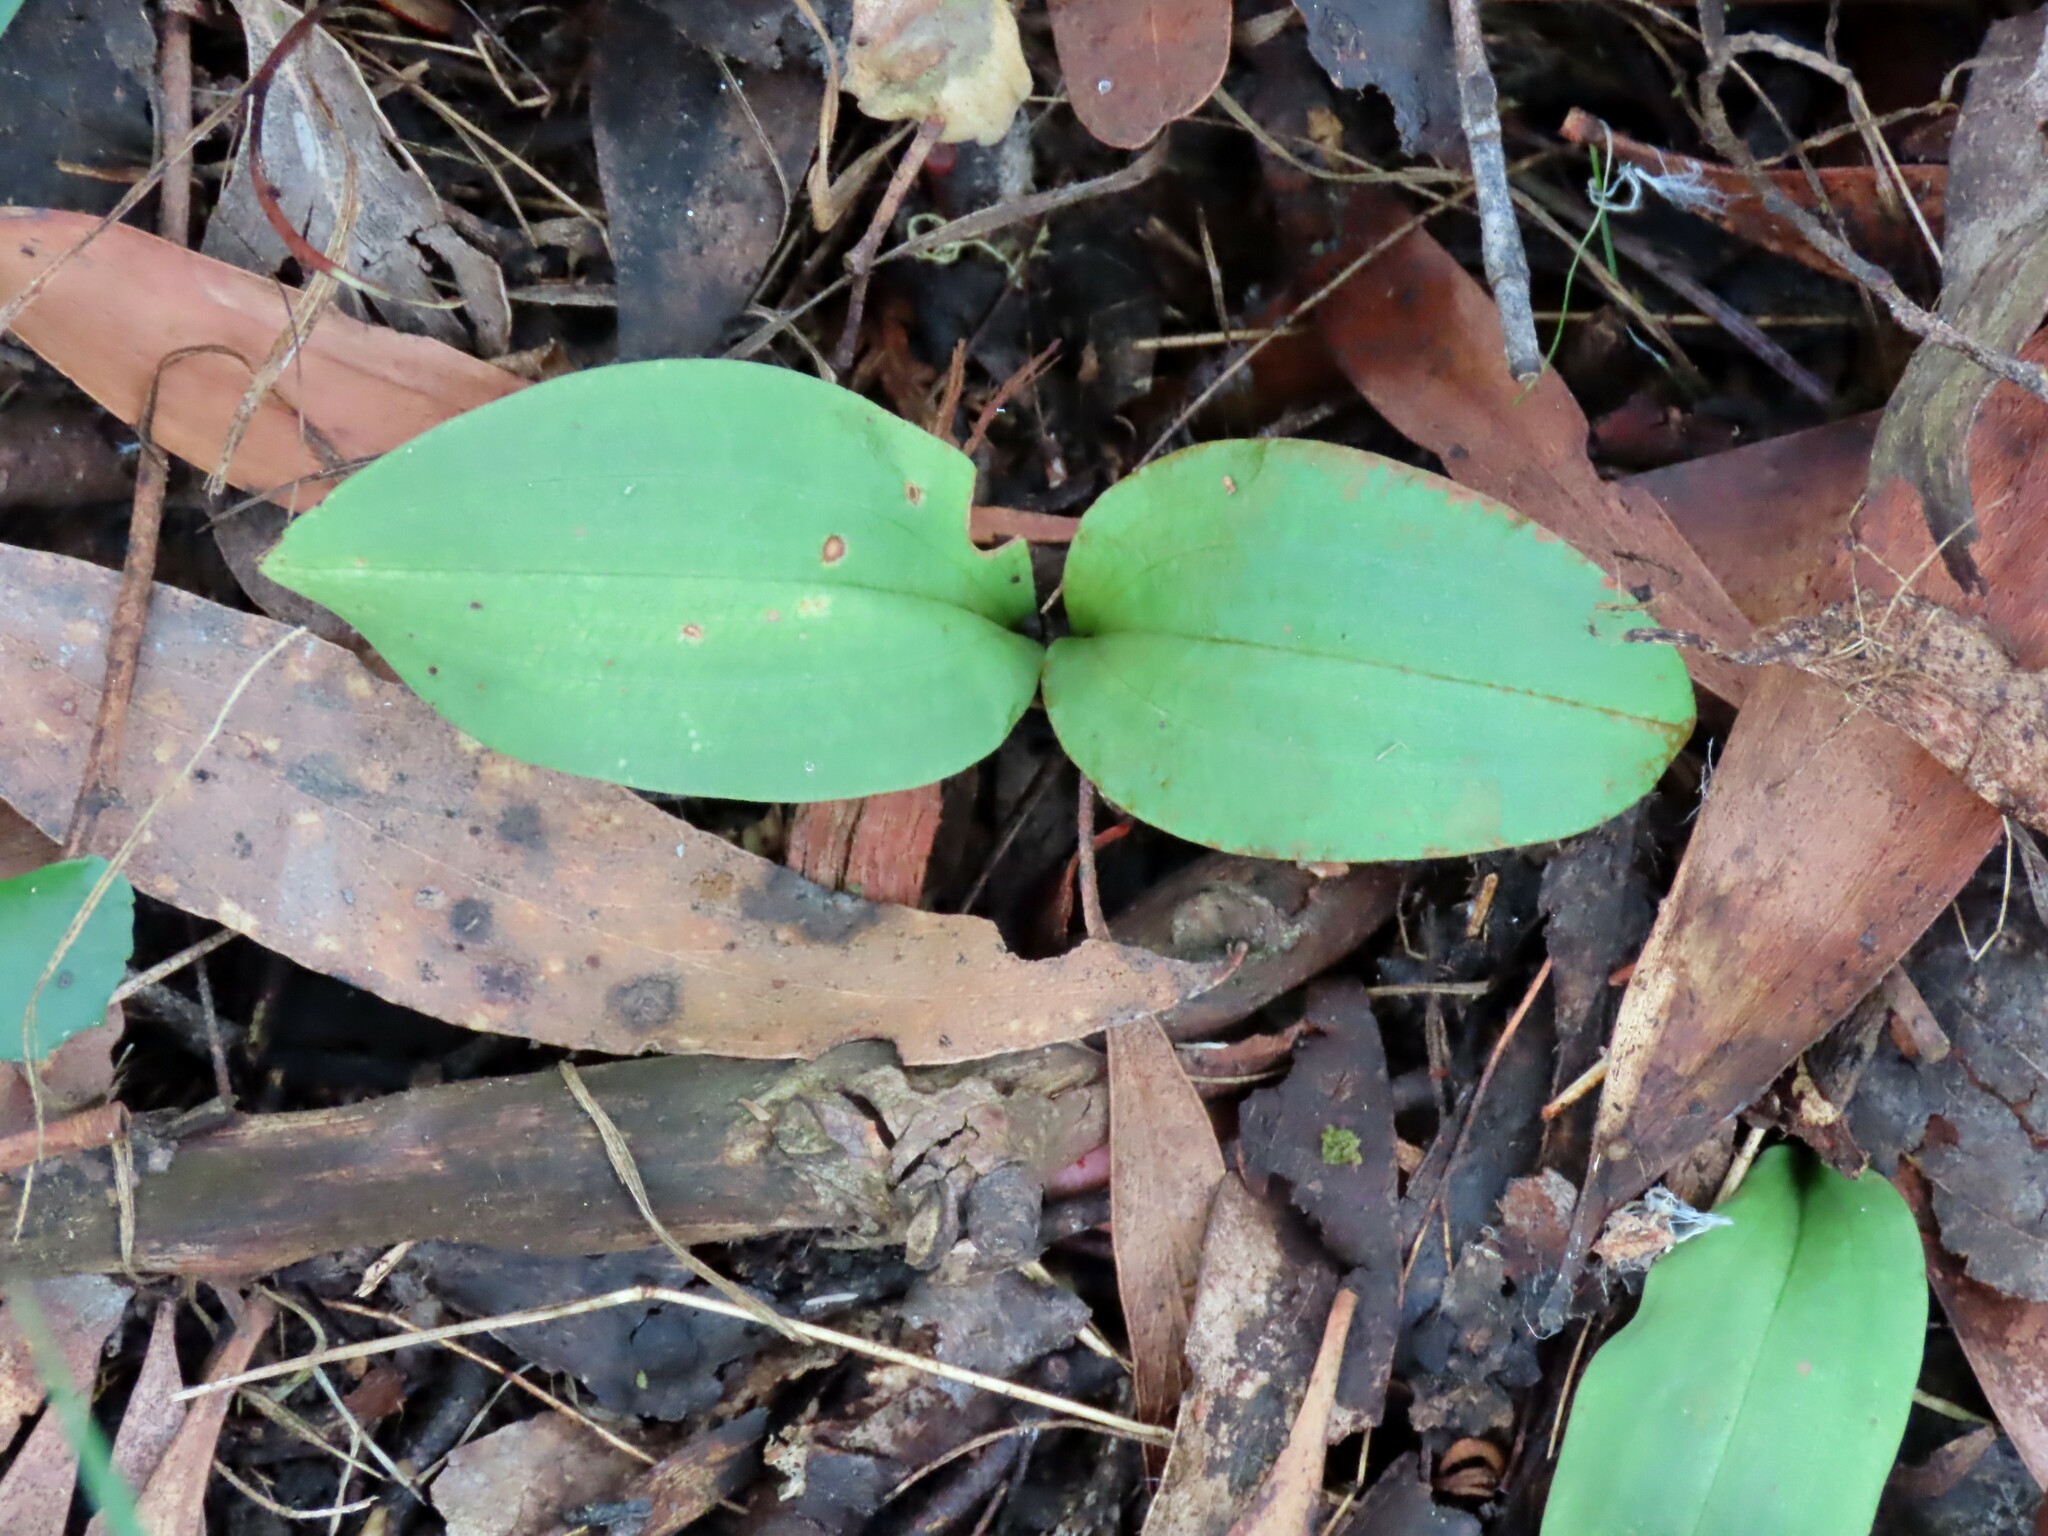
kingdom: Plantae
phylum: Tracheophyta
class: Liliopsida
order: Asparagales
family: Orchidaceae
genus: Chiloglottis
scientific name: Chiloglottis valida
